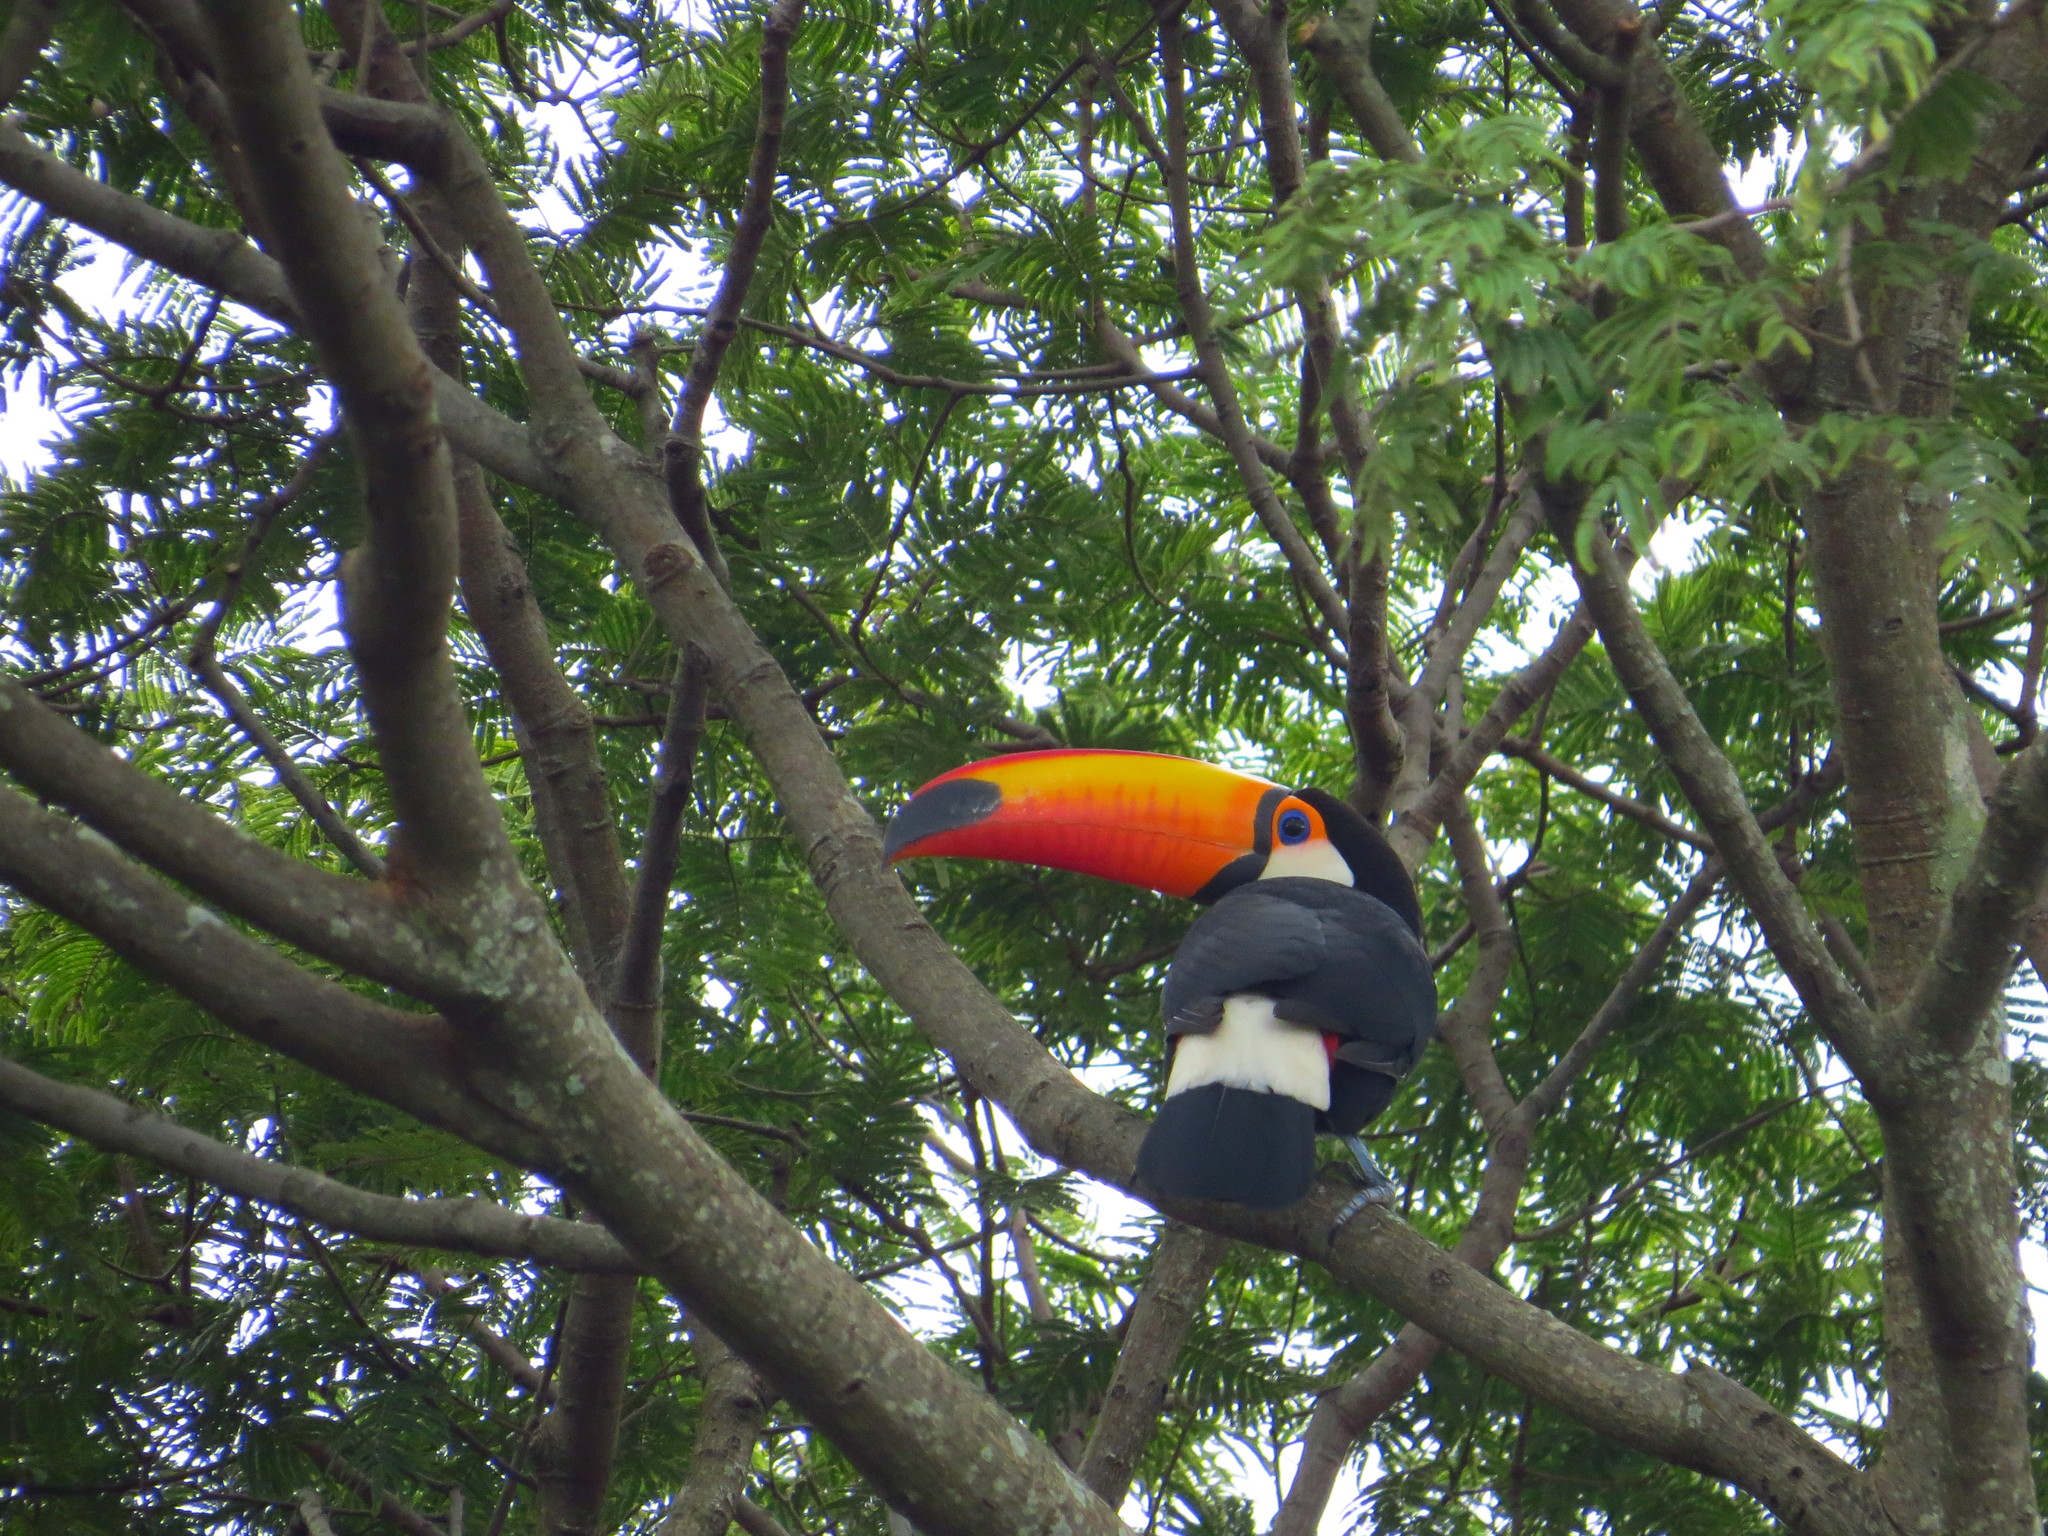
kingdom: Animalia
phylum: Chordata
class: Aves
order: Piciformes
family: Ramphastidae
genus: Ramphastos
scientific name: Ramphastos toco
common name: Toco toucan
